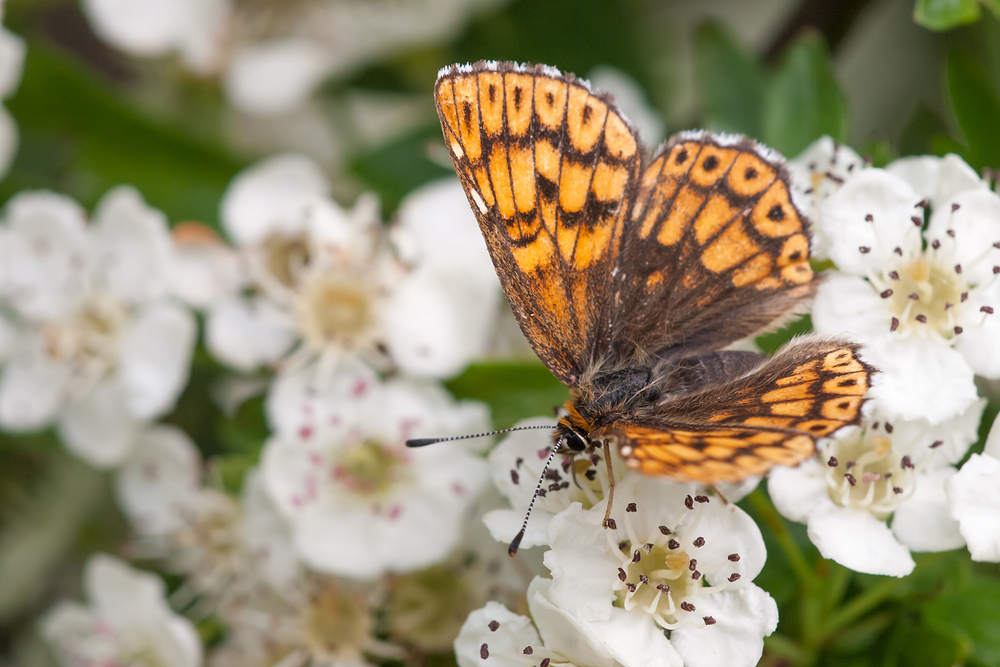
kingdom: Animalia
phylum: Arthropoda
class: Insecta
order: Lepidoptera
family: Riodinidae
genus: Hamearis
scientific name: Hamearis lucina
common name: Duke of burgundy fritillary
